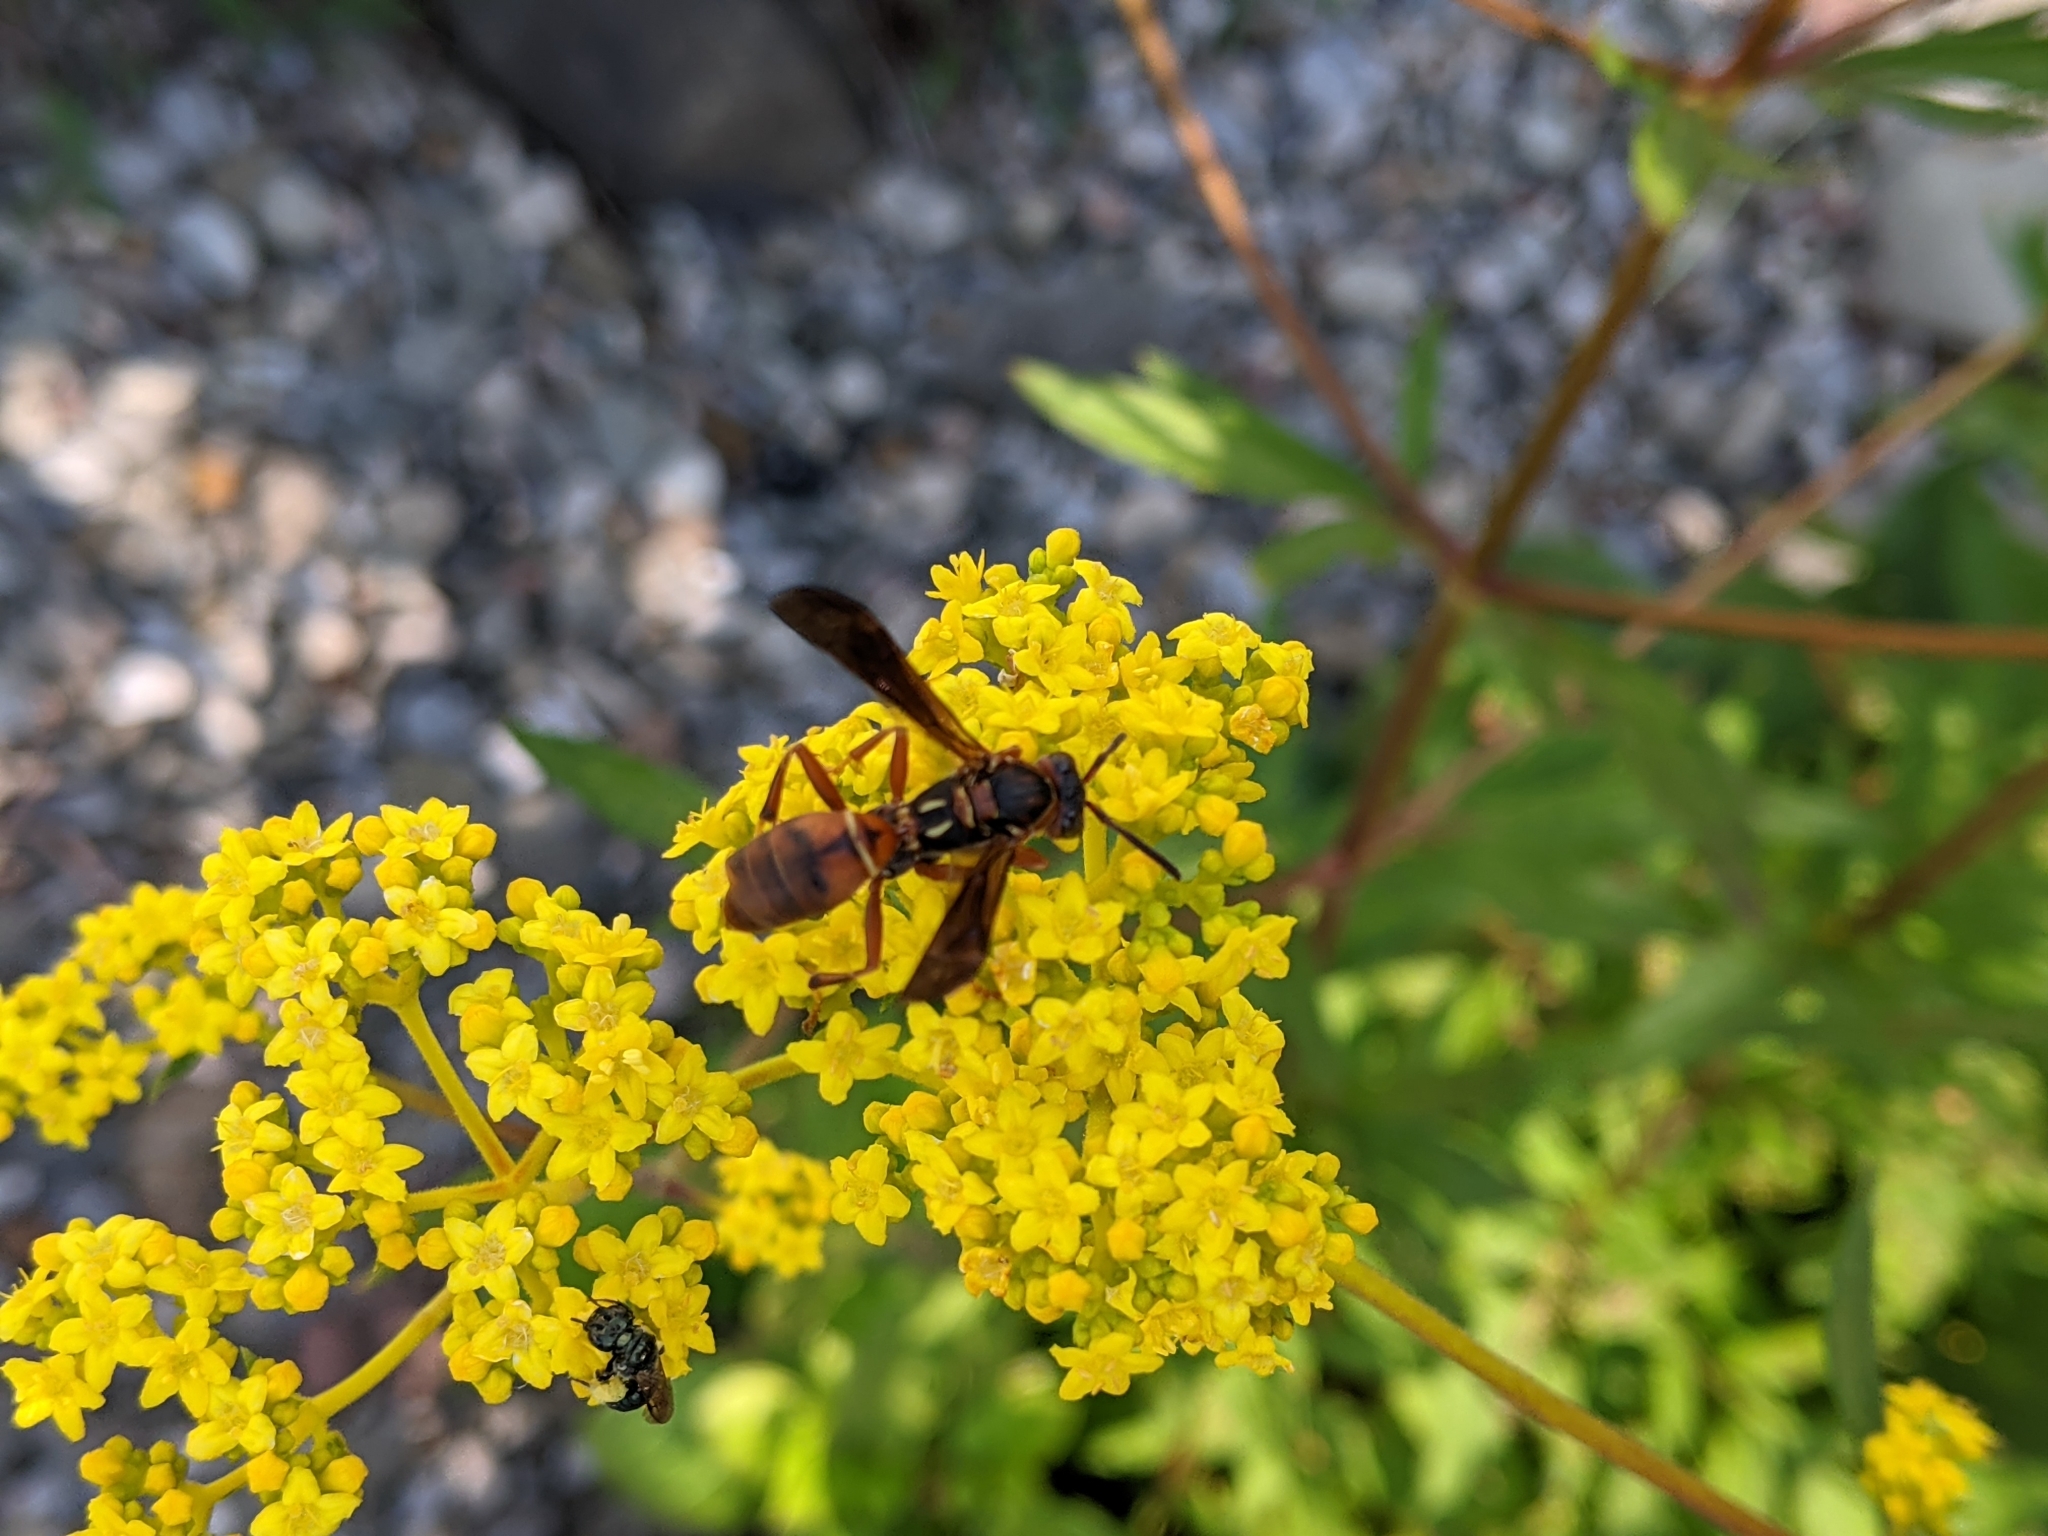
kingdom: Animalia
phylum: Arthropoda
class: Insecta
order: Hymenoptera
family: Eumenidae
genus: Polistes
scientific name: Polistes fuscatus
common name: Dark paper wasp
